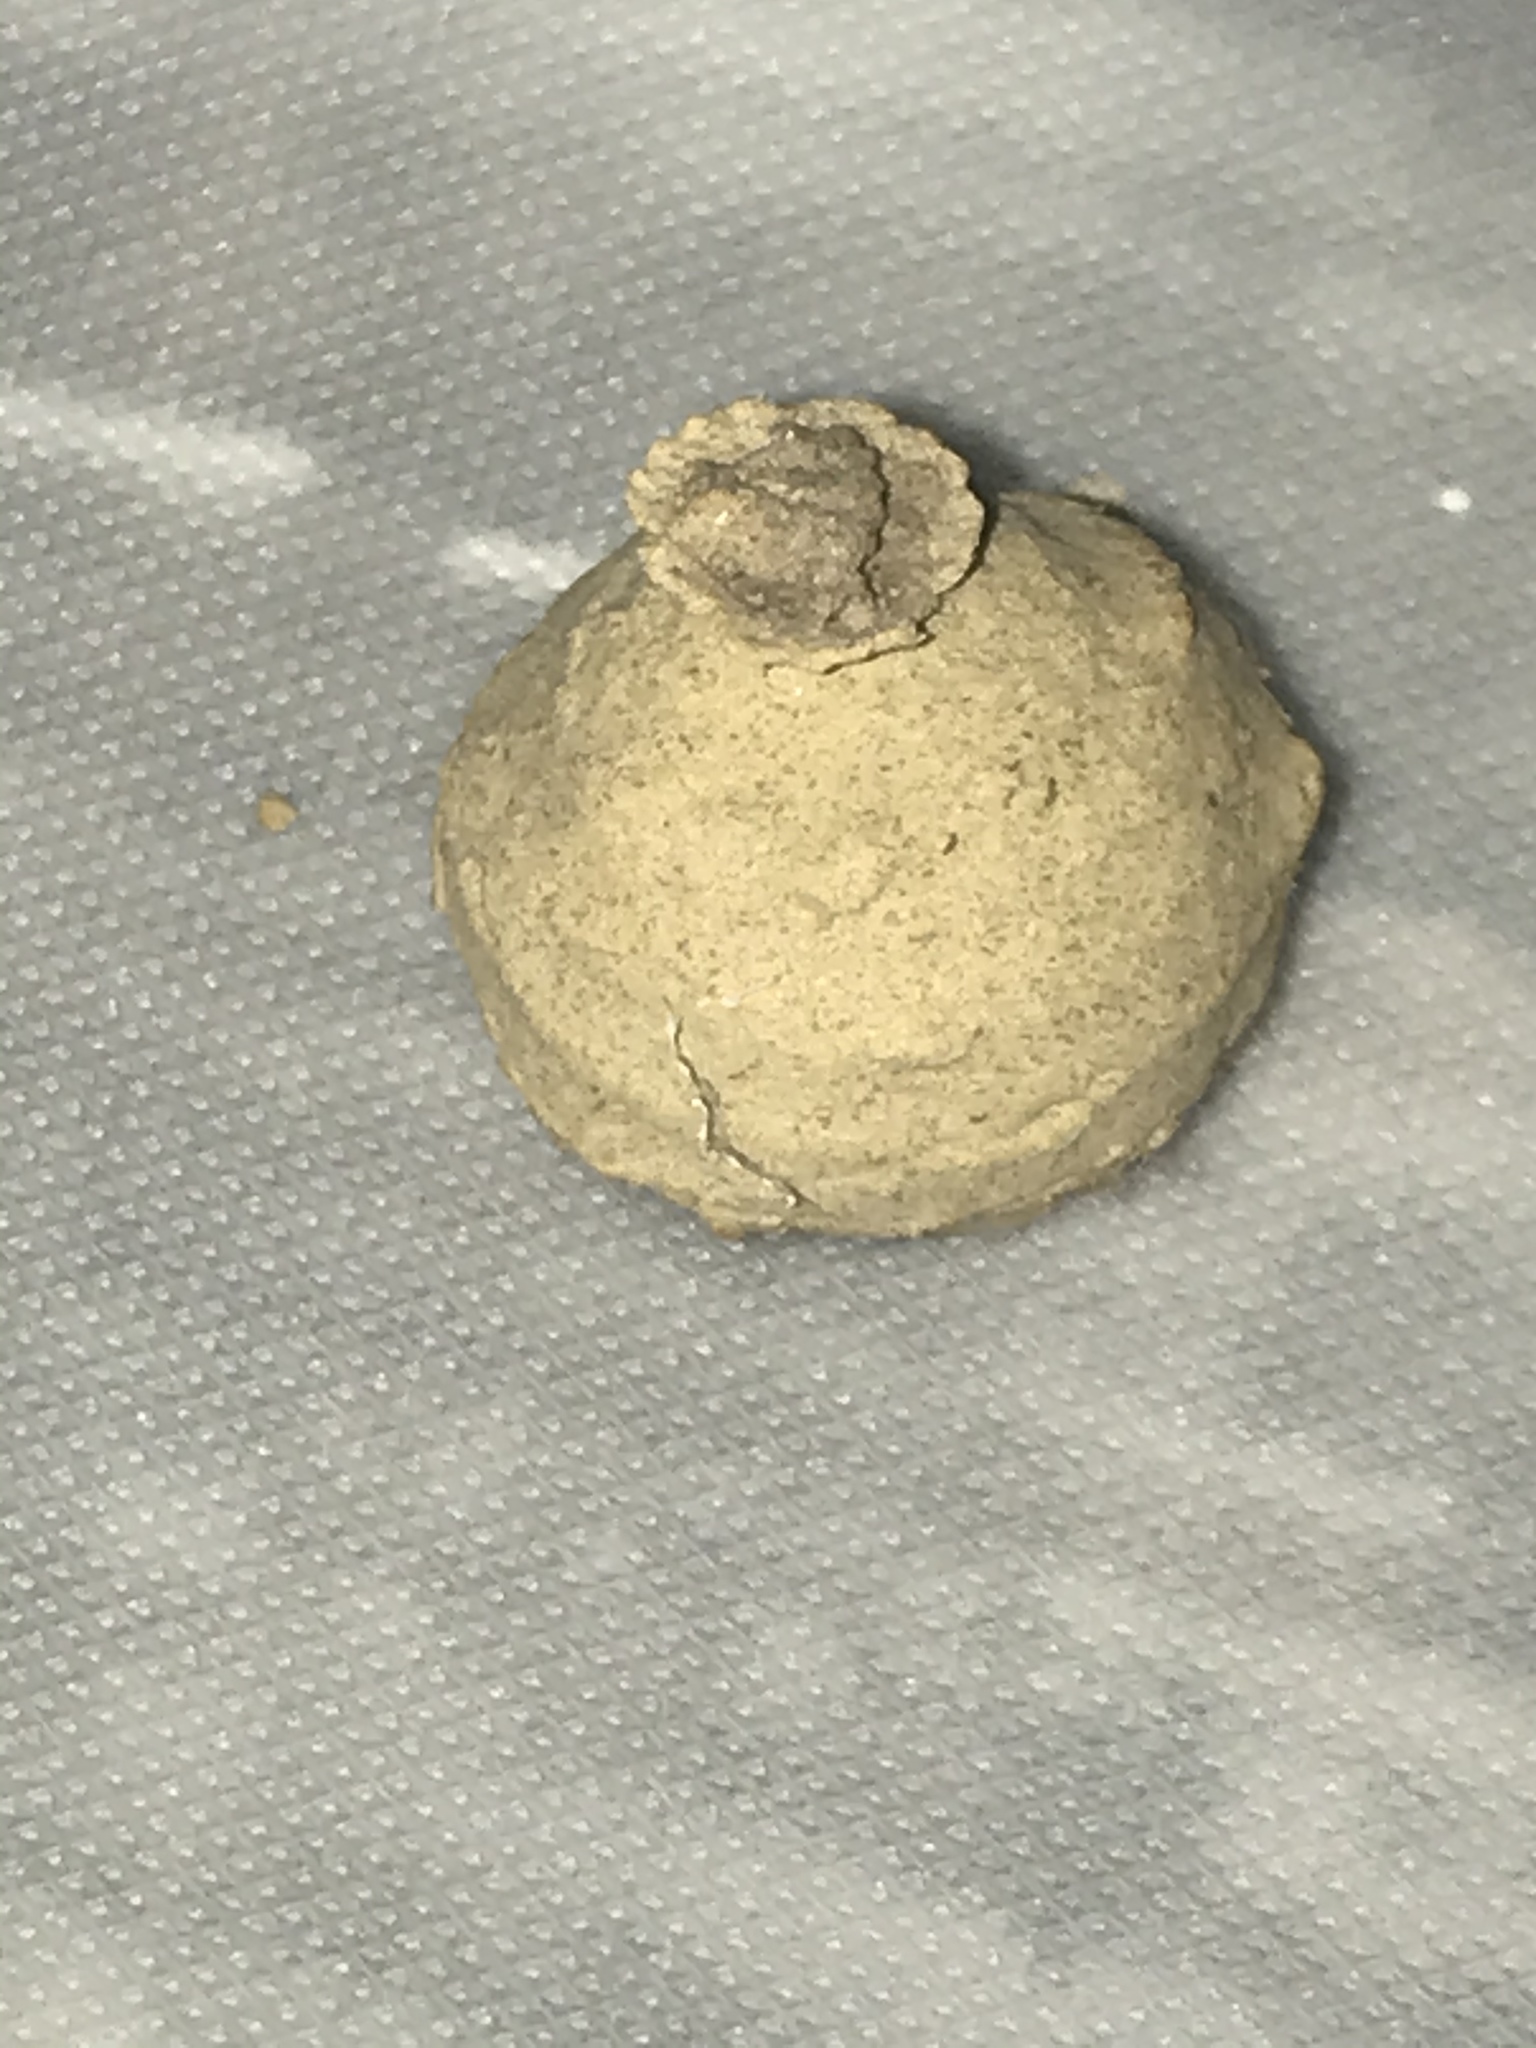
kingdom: Animalia
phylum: Arthropoda
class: Insecta
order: Hymenoptera
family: Eumenidae
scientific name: Eumenidae
